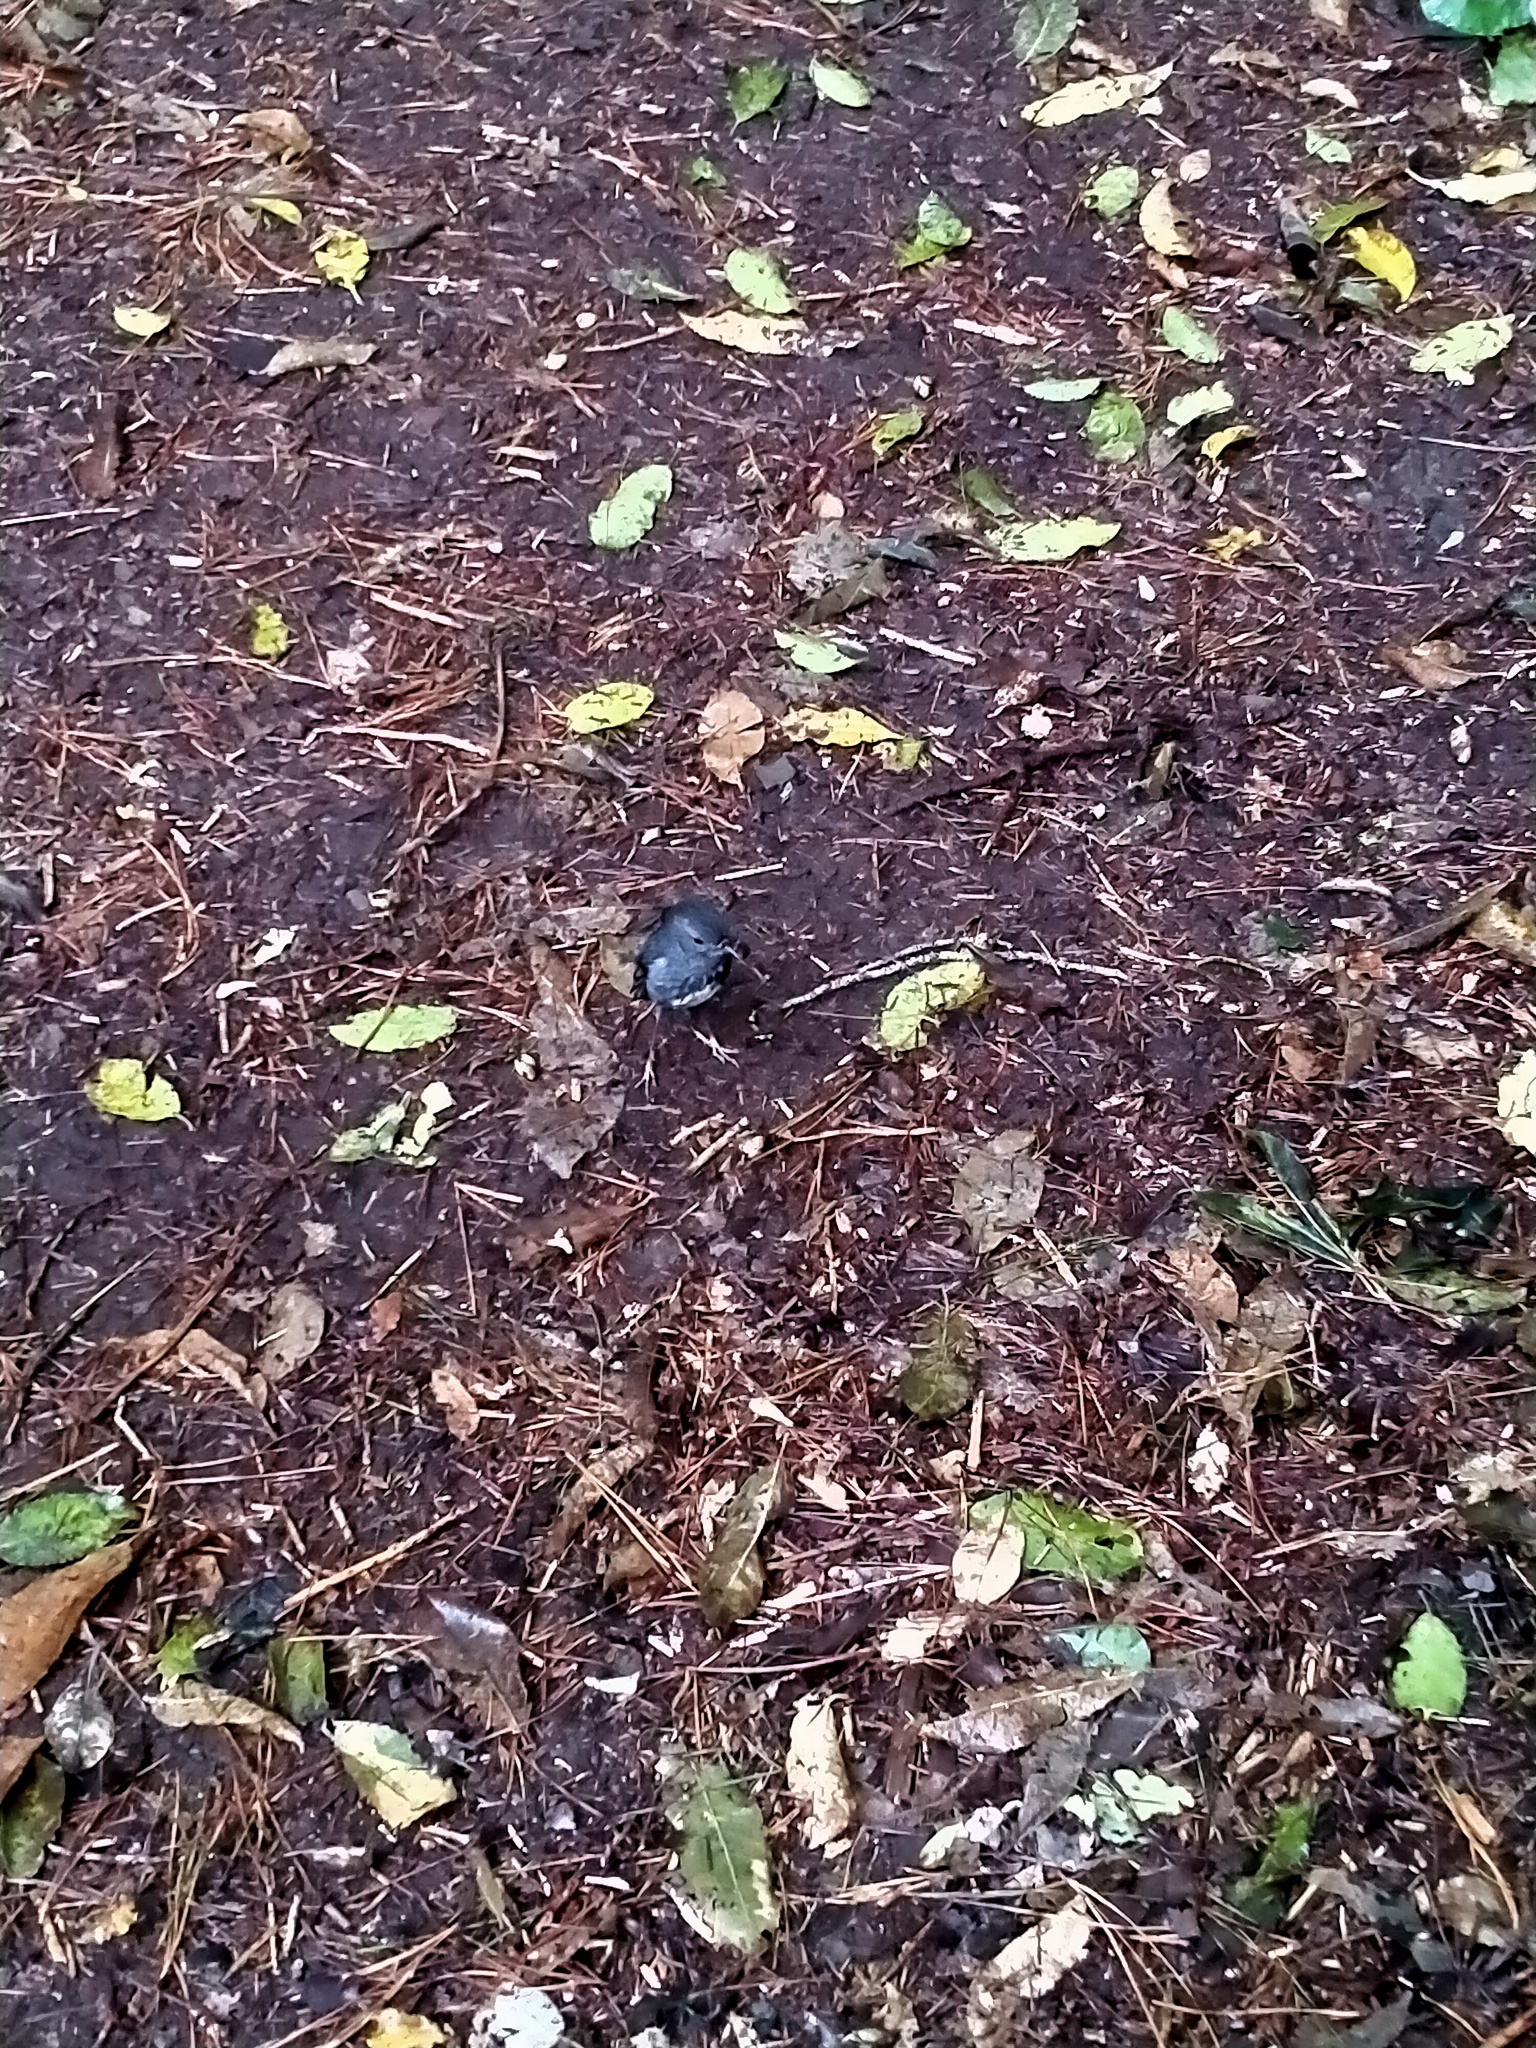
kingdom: Animalia
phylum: Chordata
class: Aves
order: Passeriformes
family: Petroicidae
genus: Petroica
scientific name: Petroica australis
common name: New zealand robin
